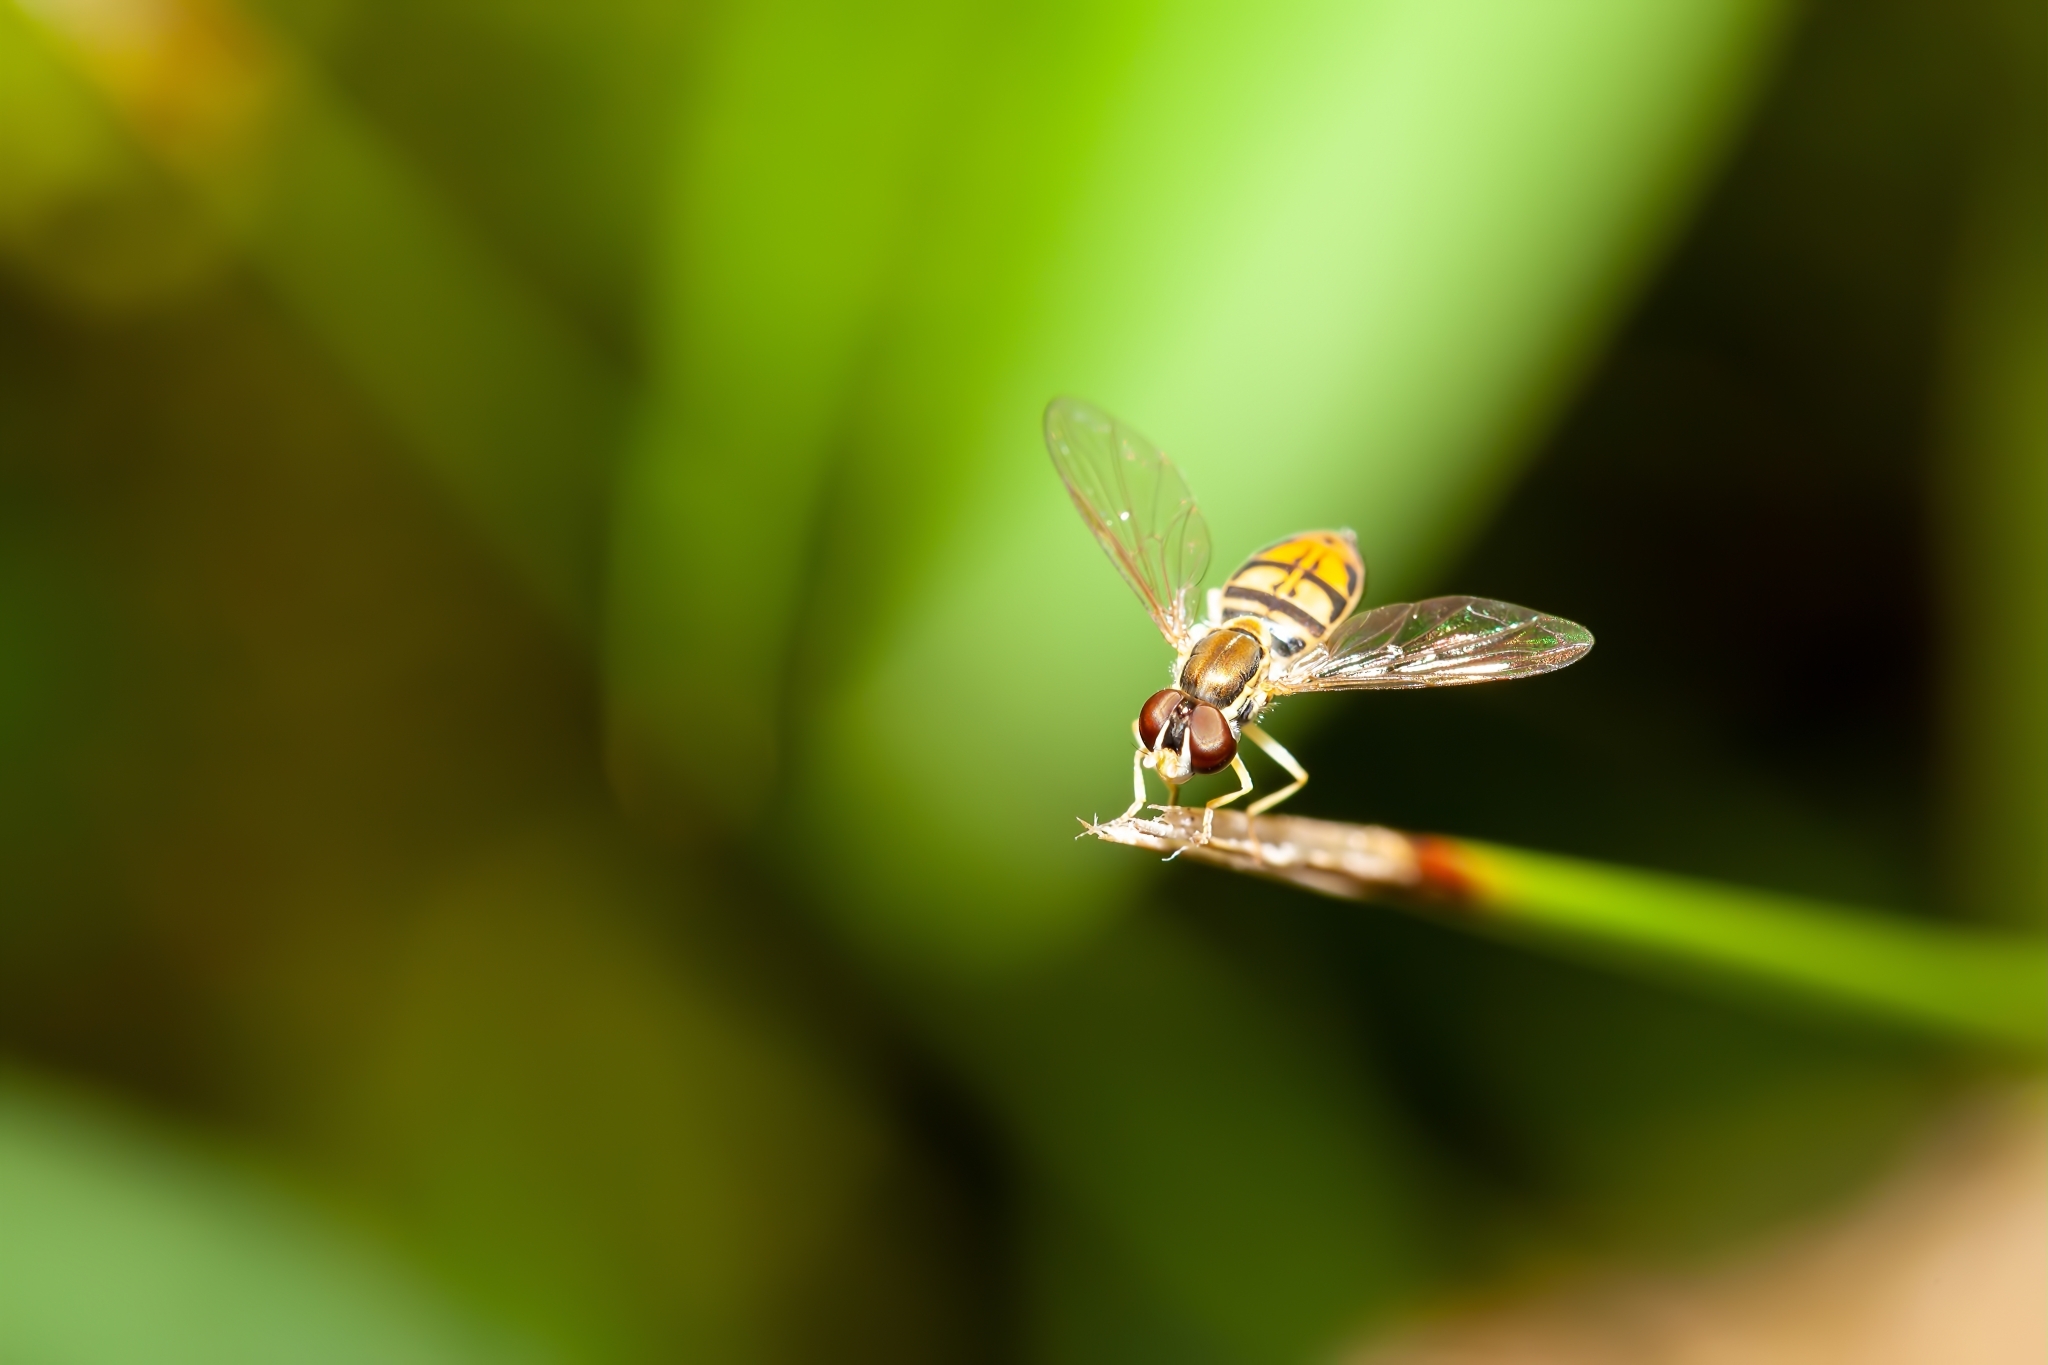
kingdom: Animalia
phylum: Arthropoda
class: Insecta
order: Diptera
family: Syrphidae
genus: Toxomerus
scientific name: Toxomerus marginatus
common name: Syrphid fly
